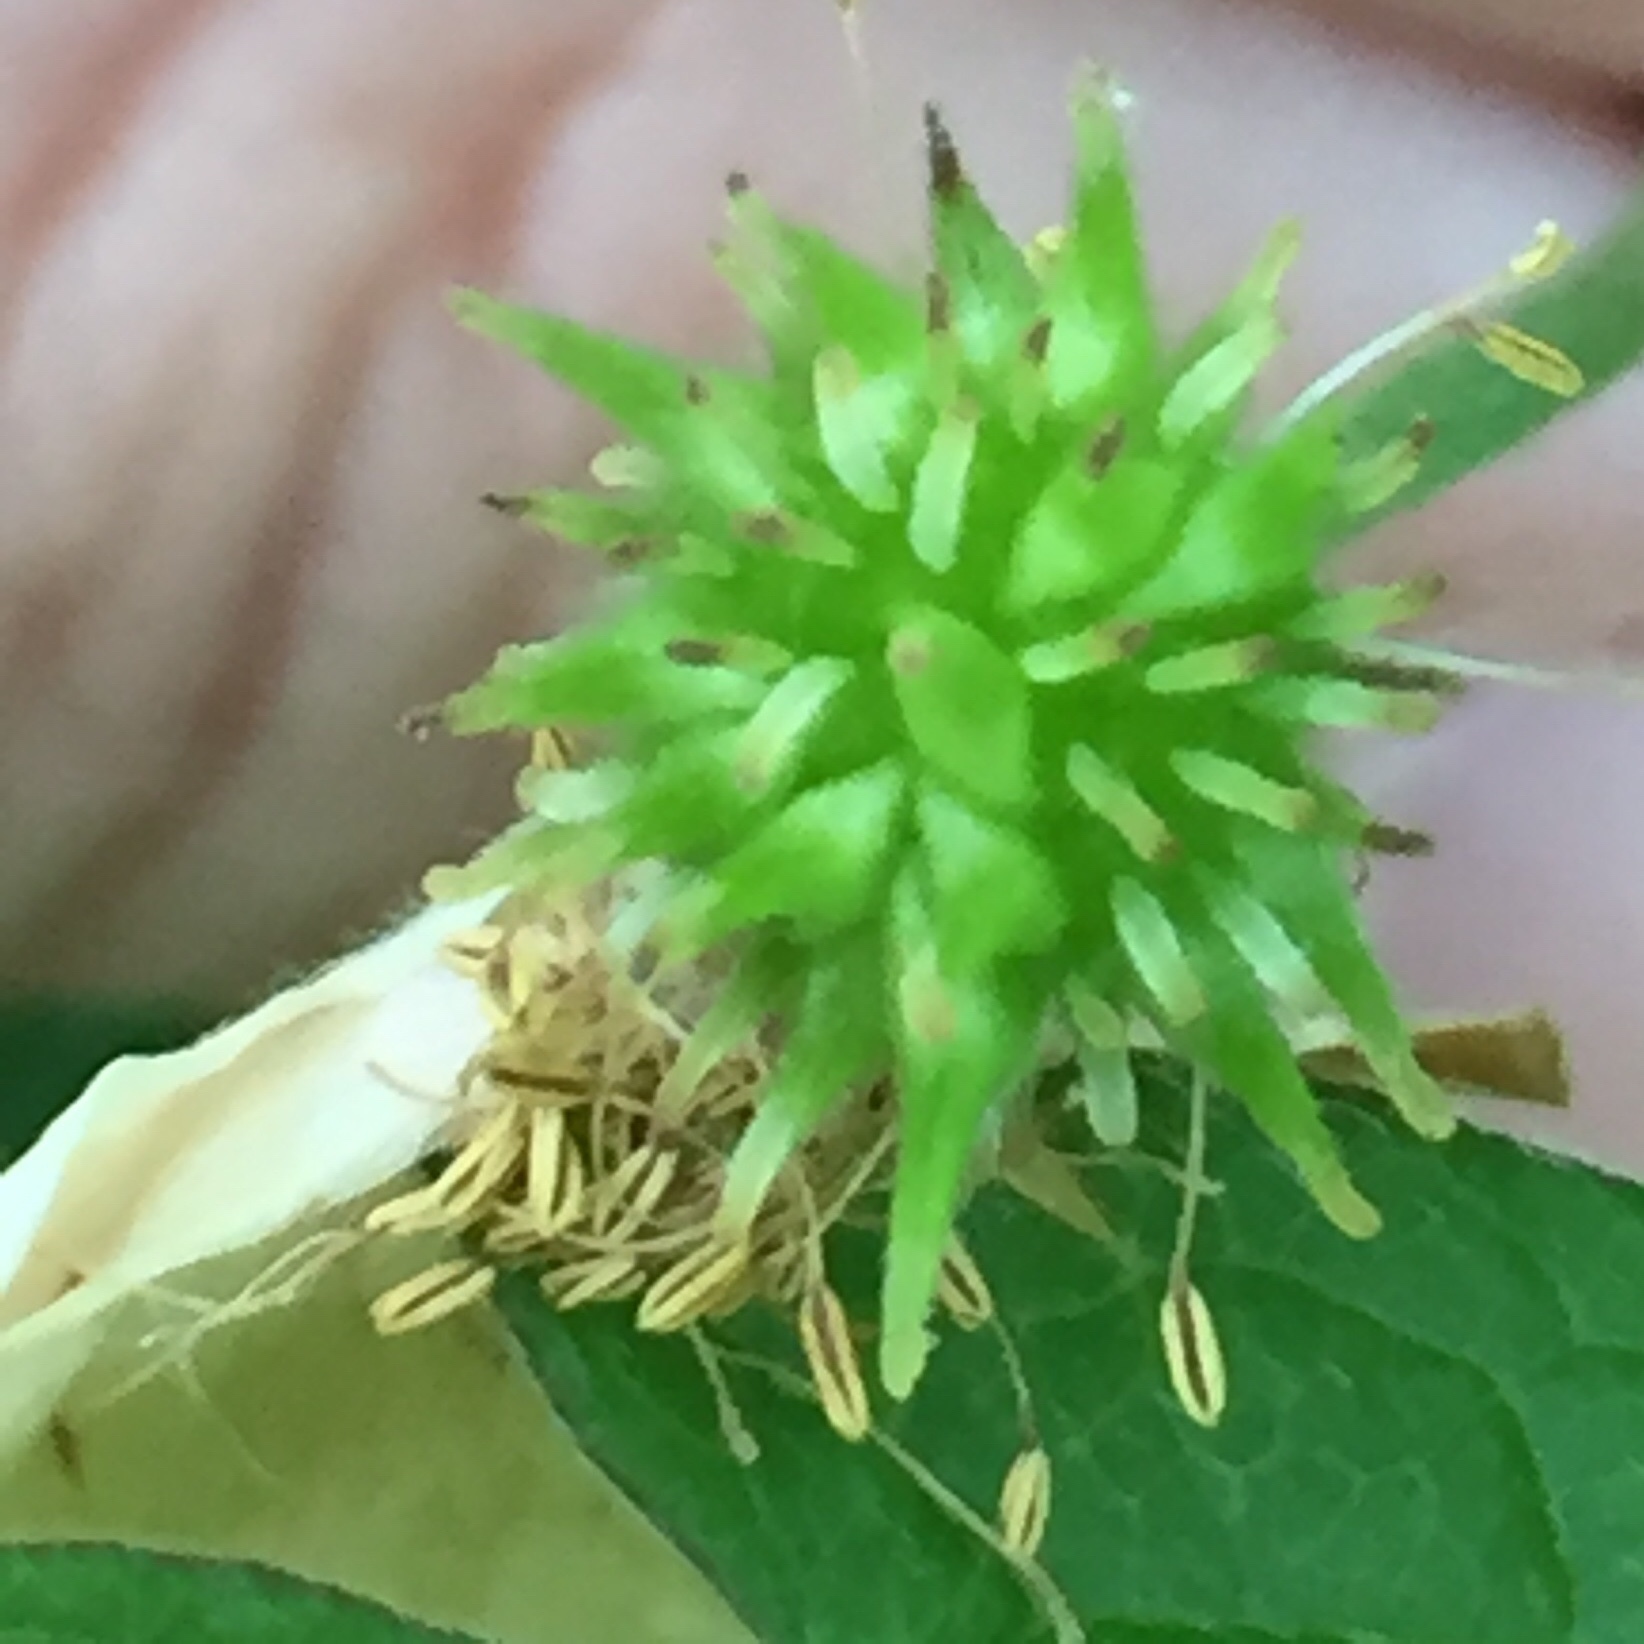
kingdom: Plantae
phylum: Tracheophyta
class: Magnoliopsida
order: Ranunculales
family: Ranunculaceae
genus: Anemonastrum
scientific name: Anemonastrum canadense
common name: Canada anemone
